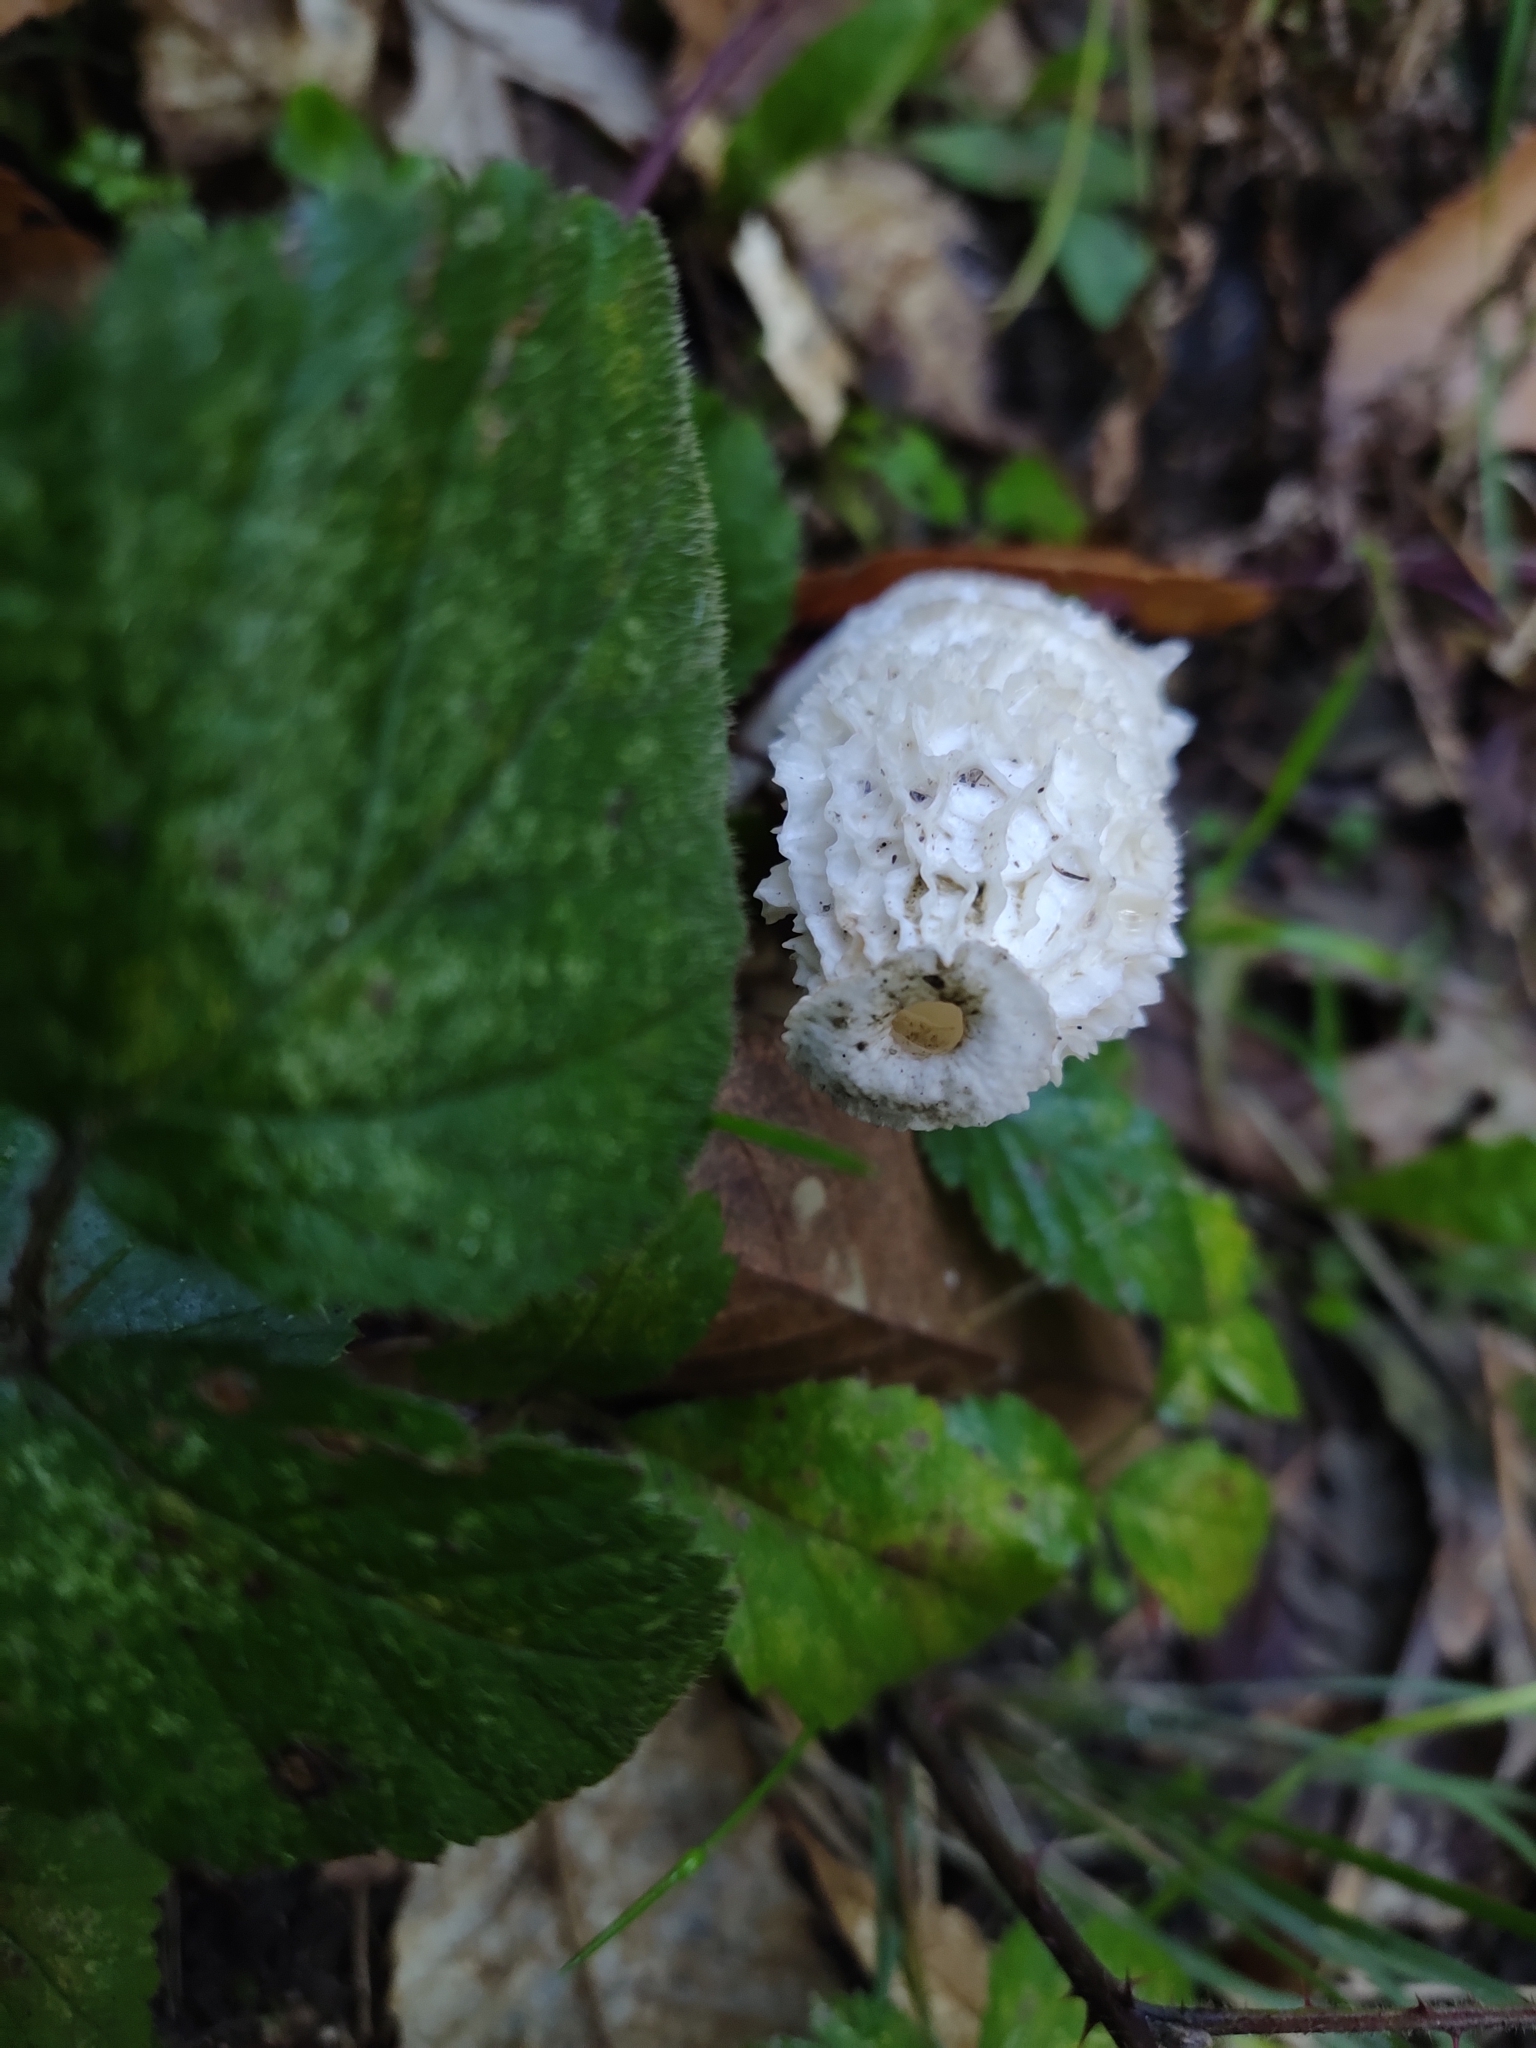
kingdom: Fungi
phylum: Basidiomycota
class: Agaricomycetes
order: Phallales
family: Phallaceae
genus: Phallus
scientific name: Phallus impudicus
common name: Common stinkhorn
